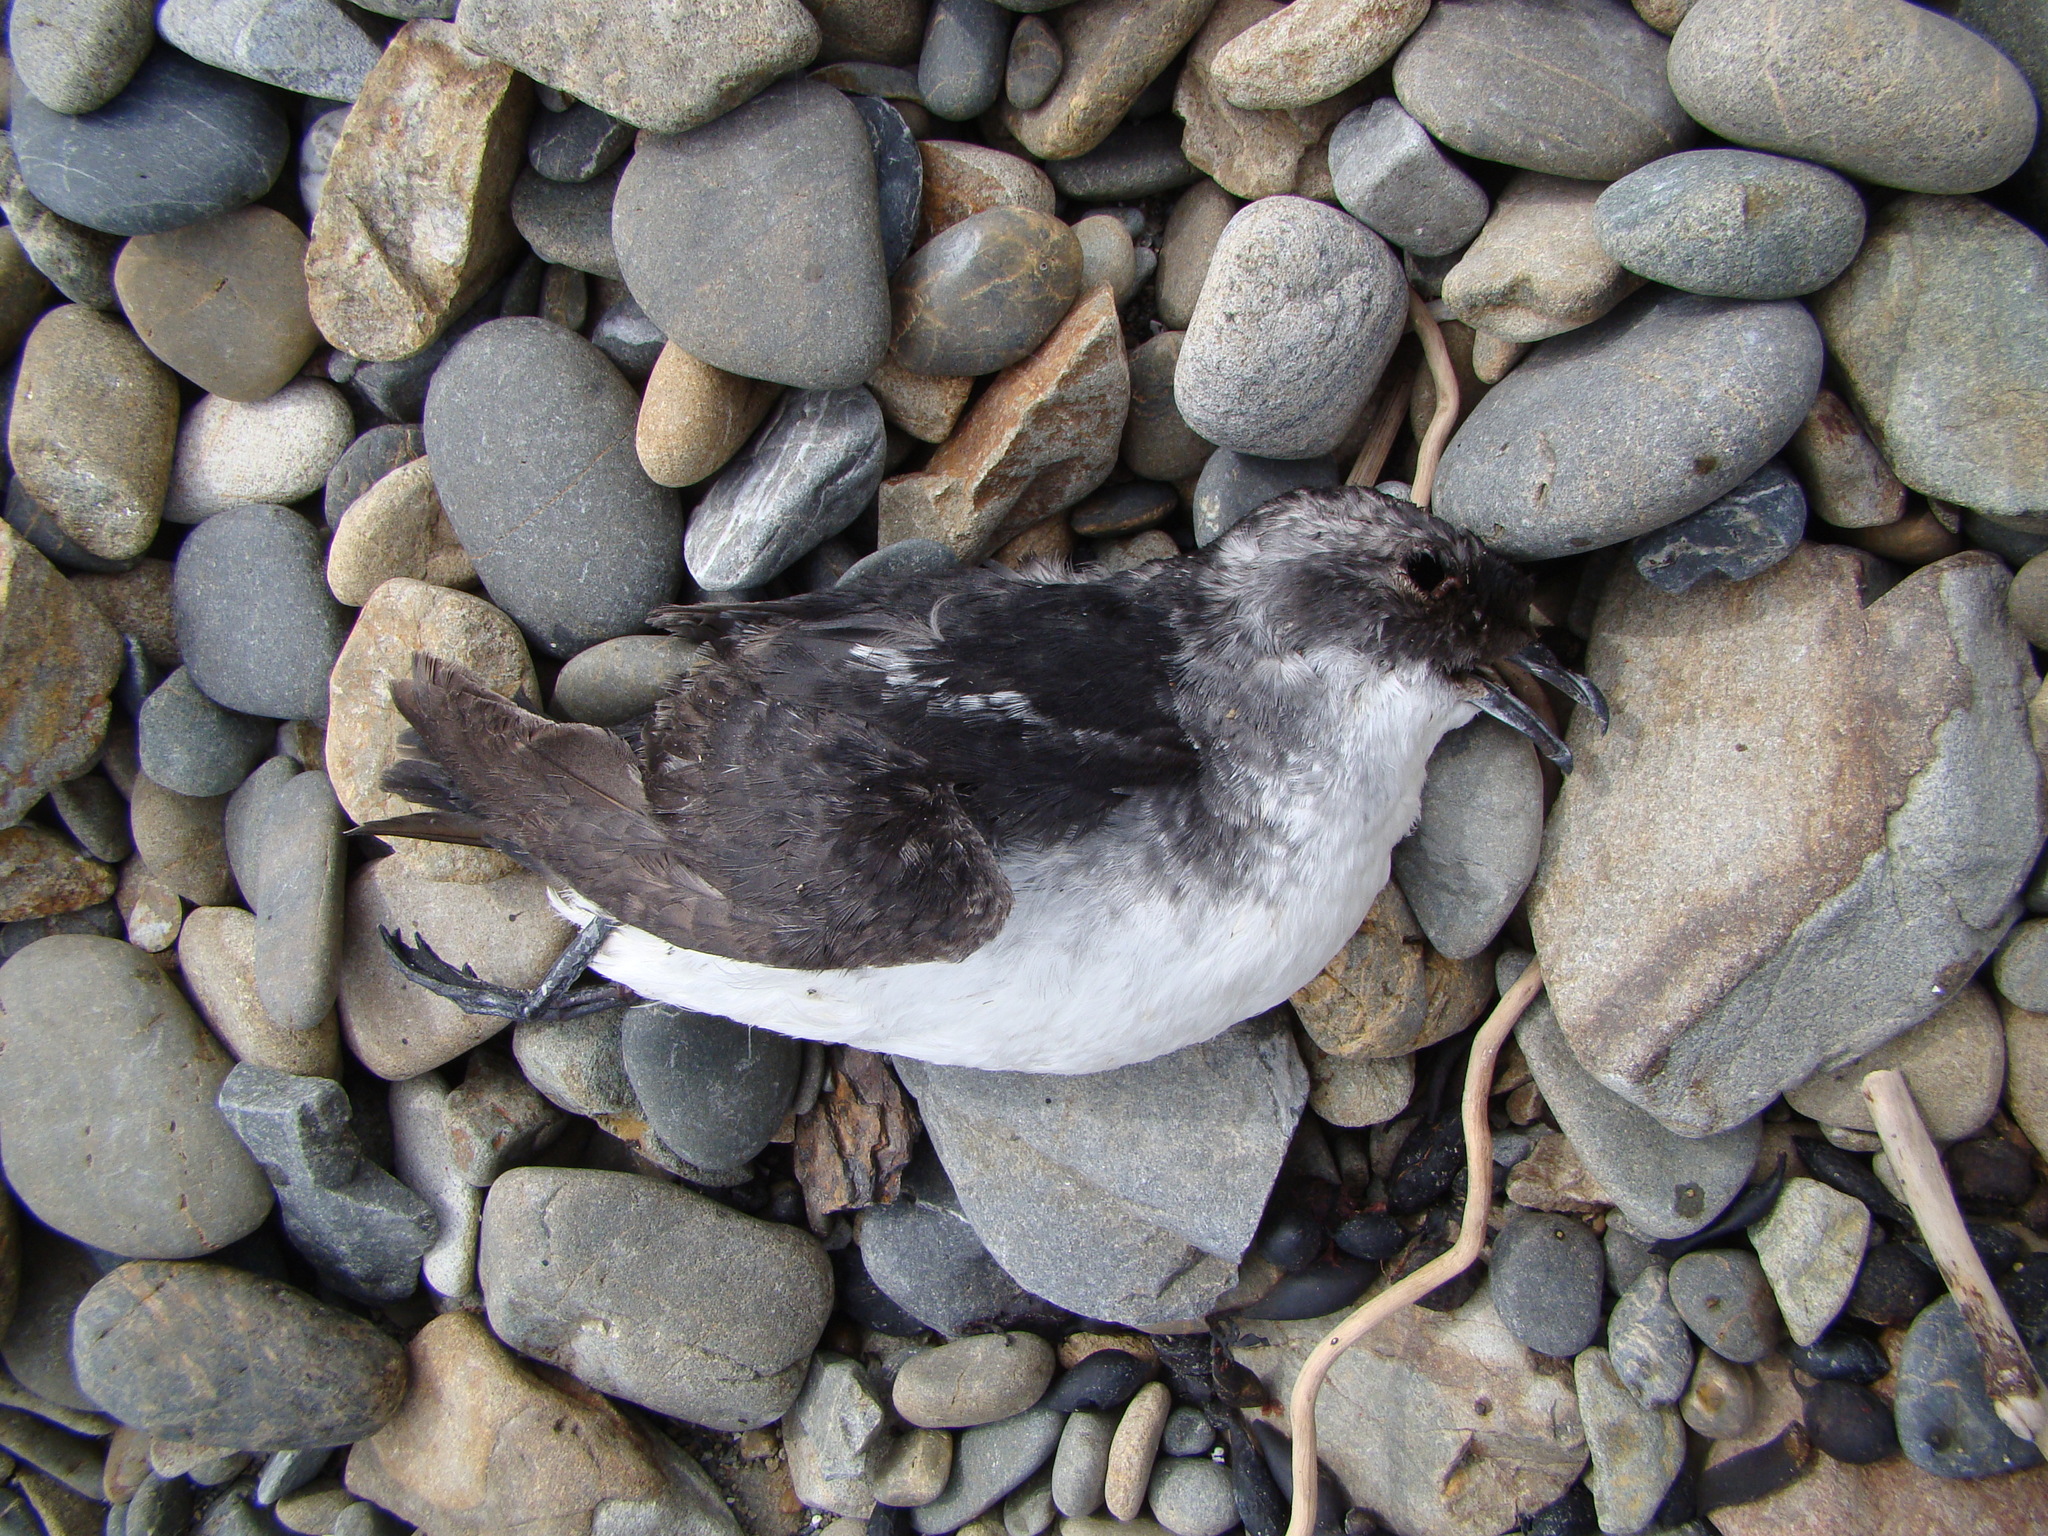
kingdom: Animalia
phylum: Chordata
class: Aves
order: Procellariiformes
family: Pelecanoididae
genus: Pelecanoides
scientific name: Pelecanoides urinatrix
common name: Common diving-petrel
